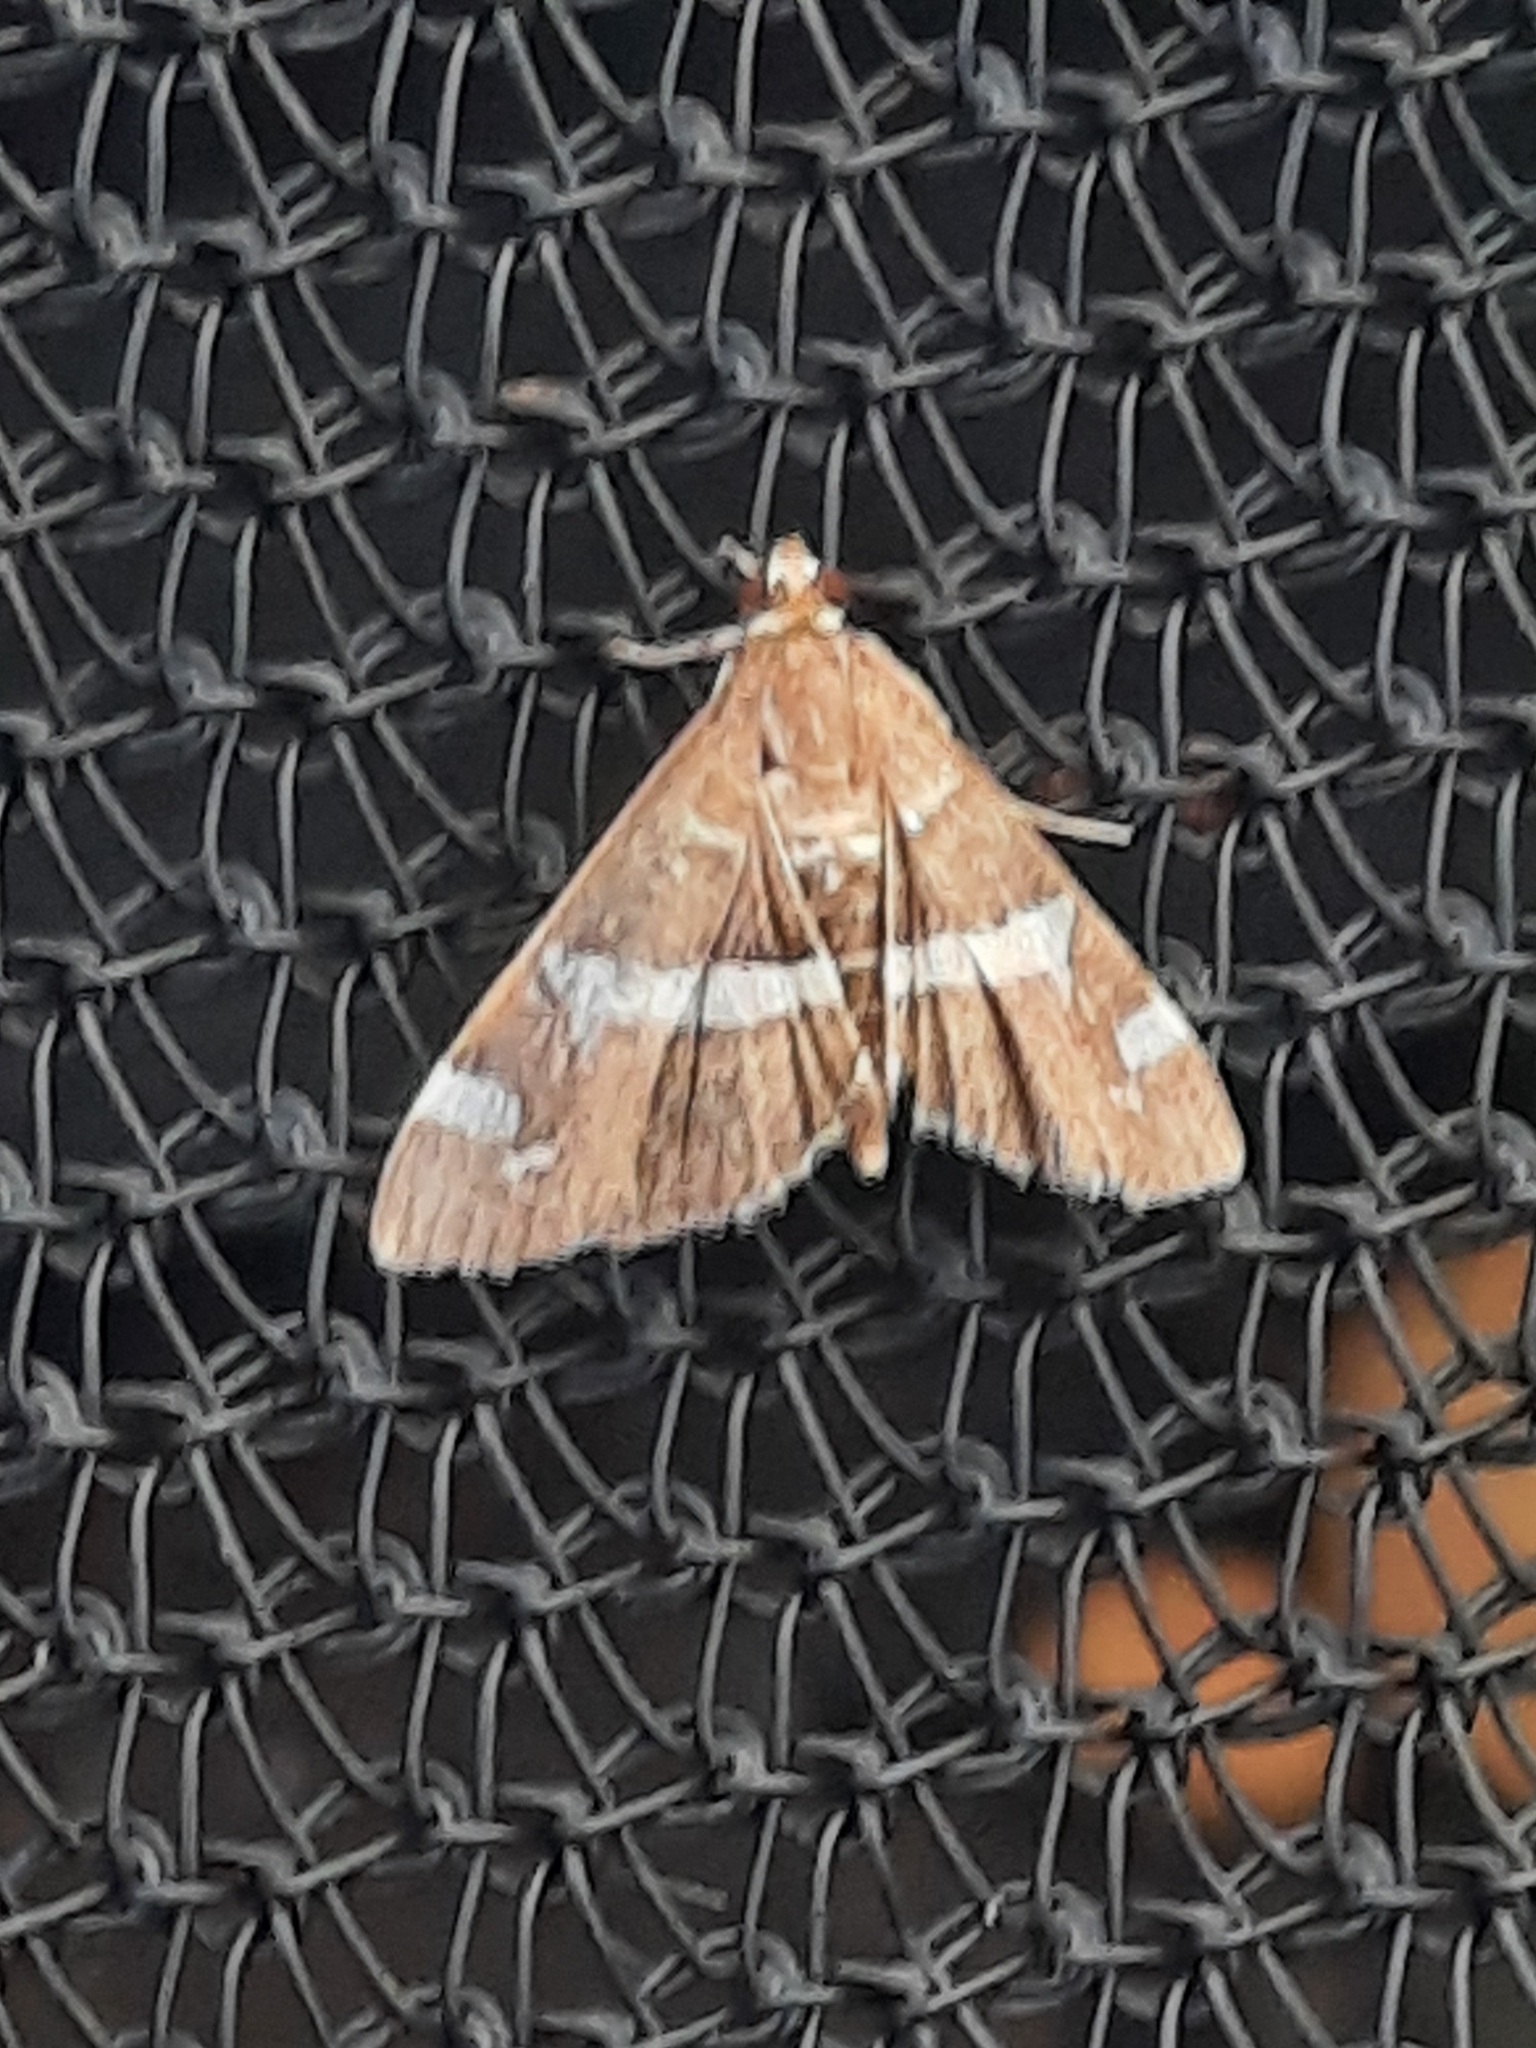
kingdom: Animalia
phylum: Arthropoda
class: Insecta
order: Lepidoptera
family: Crambidae
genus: Spoladea
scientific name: Spoladea recurvalis
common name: Beet webworm moth
